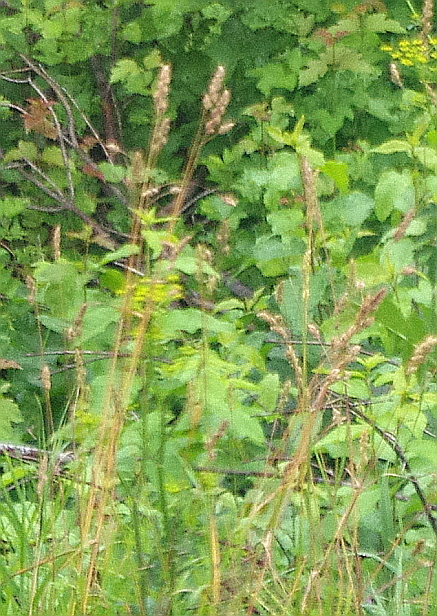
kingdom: Plantae
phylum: Tracheophyta
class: Liliopsida
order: Poales
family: Poaceae
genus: Dactylis
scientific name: Dactylis glomerata
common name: Orchardgrass
